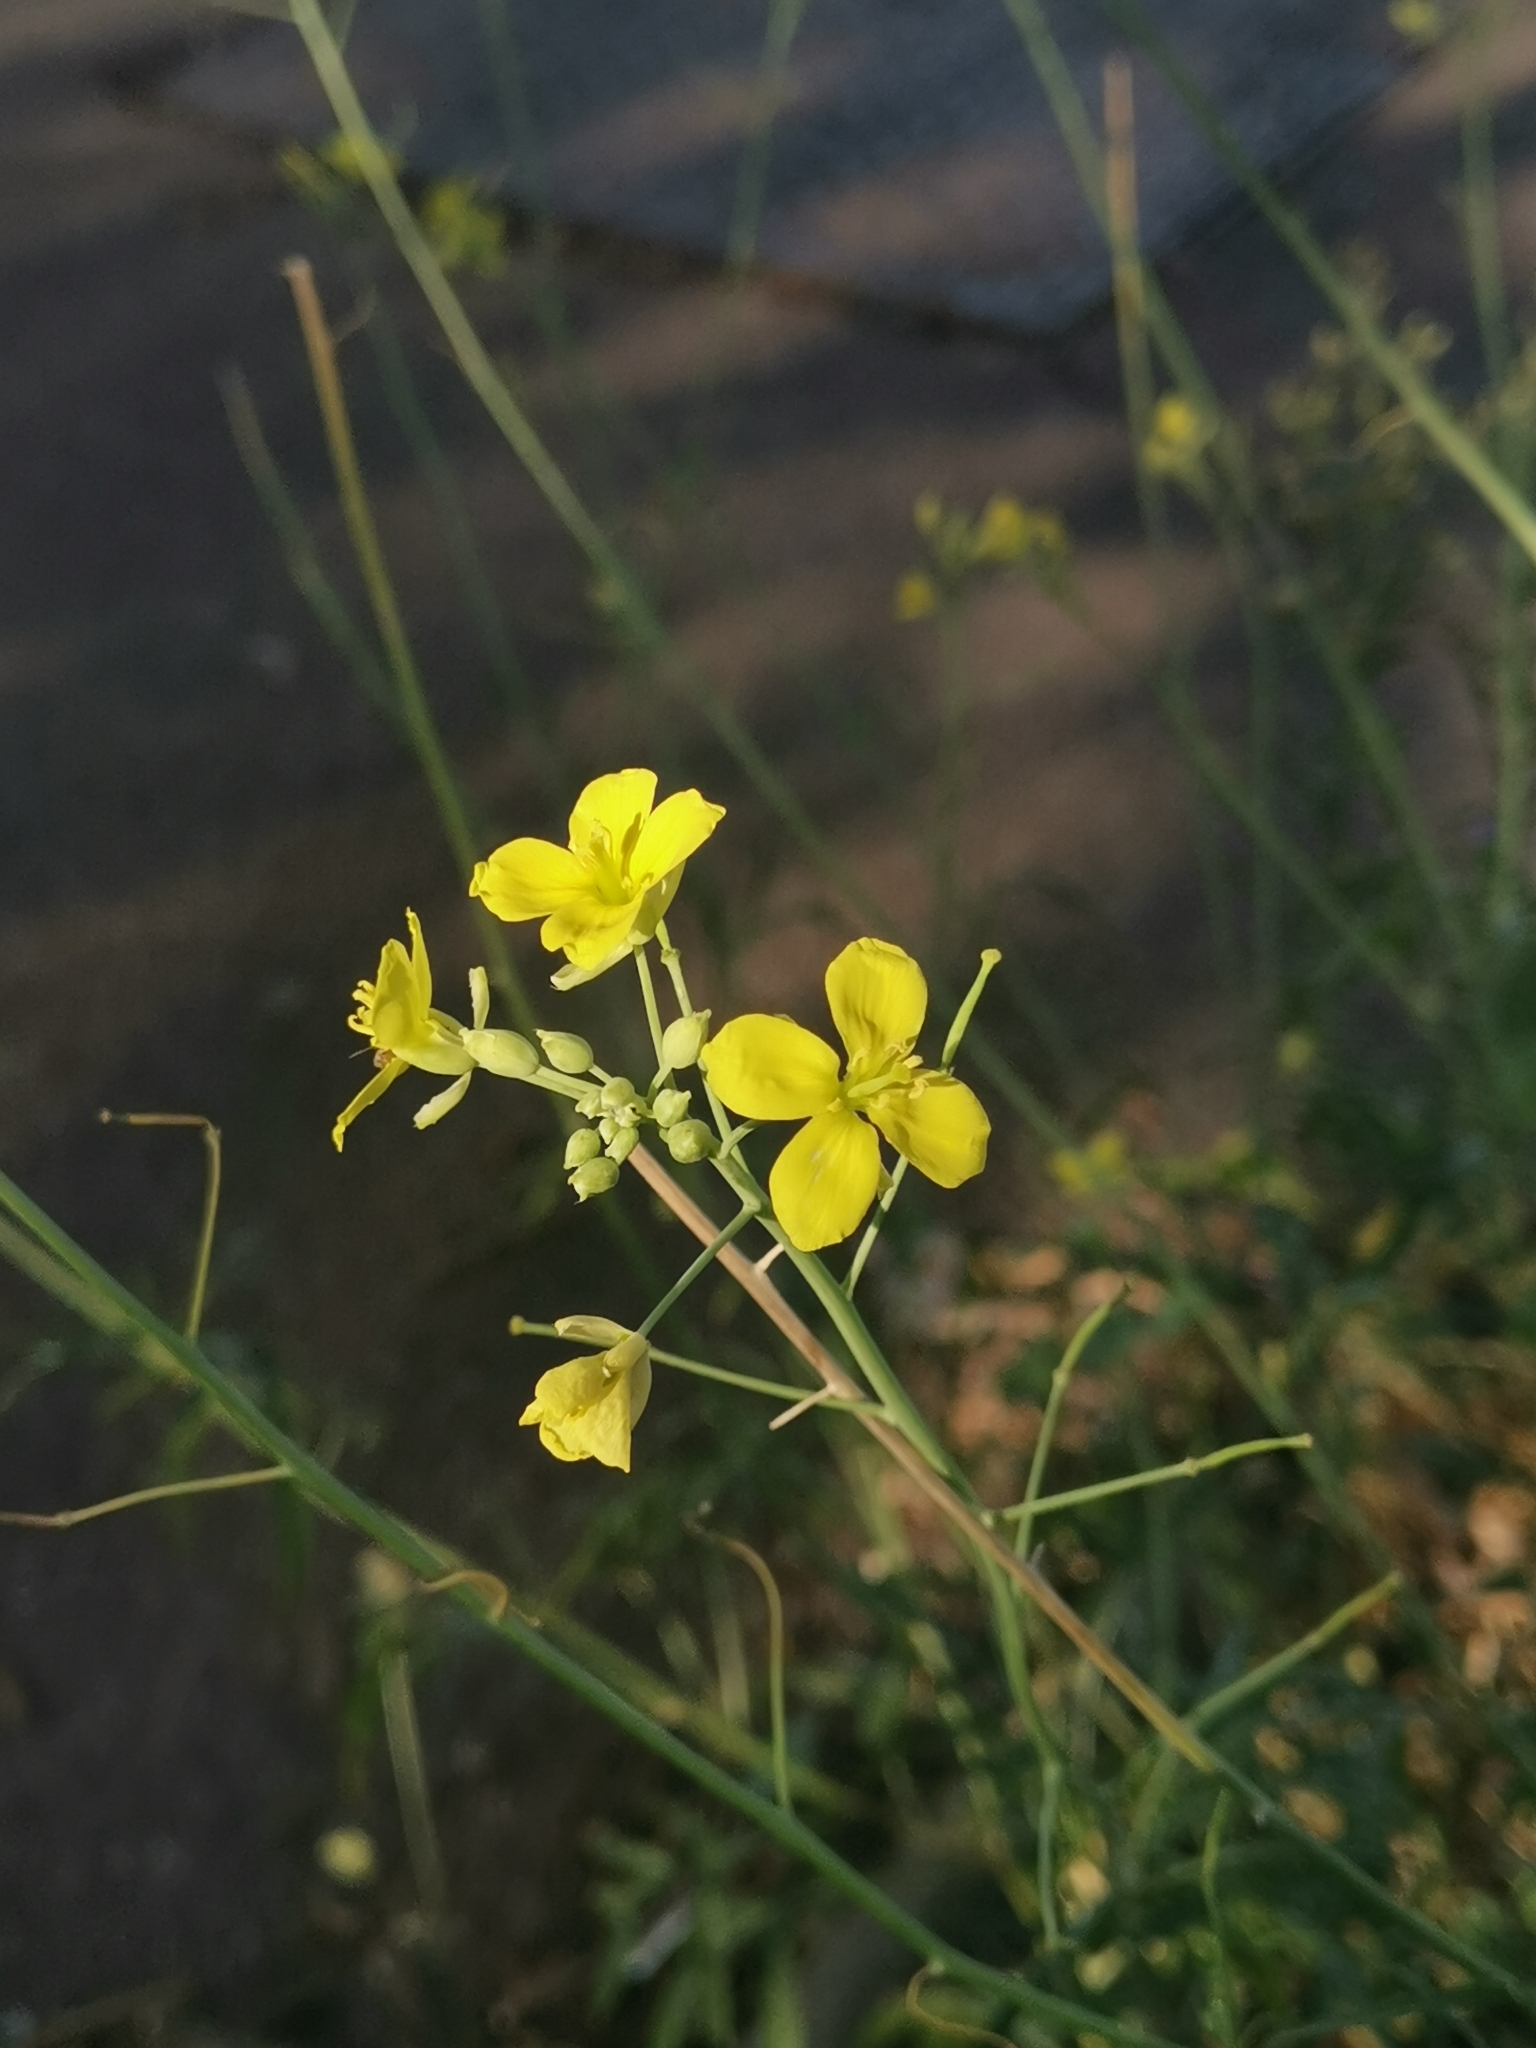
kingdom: Plantae
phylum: Tracheophyta
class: Magnoliopsida
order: Brassicales
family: Brassicaceae
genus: Diplotaxis
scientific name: Diplotaxis tenuifolia
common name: Perennial wall-rocket
